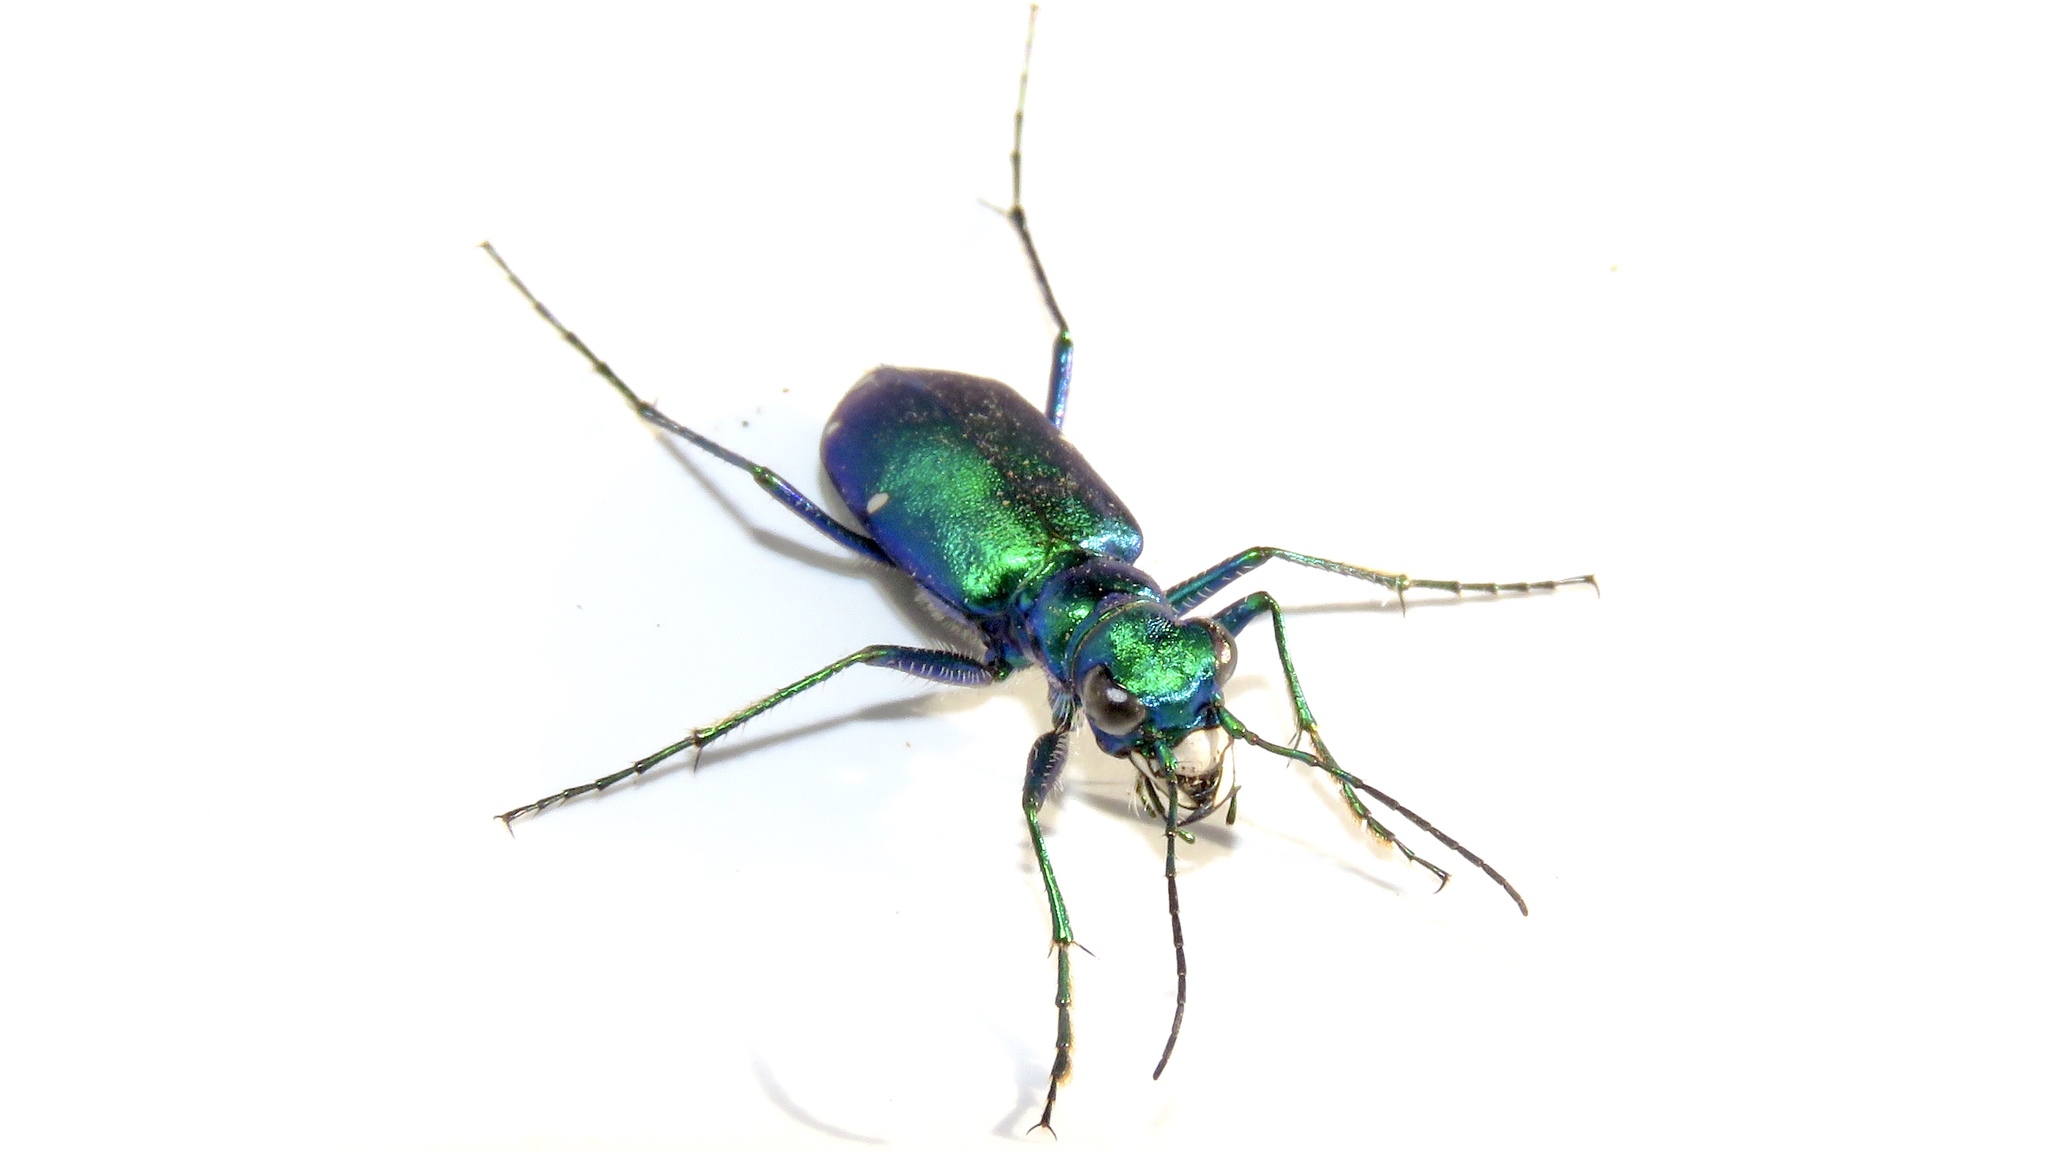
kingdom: Animalia
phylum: Arthropoda
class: Insecta
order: Coleoptera
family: Carabidae
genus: Cicindela
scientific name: Cicindela sexguttata
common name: Six-spotted tiger beetle
